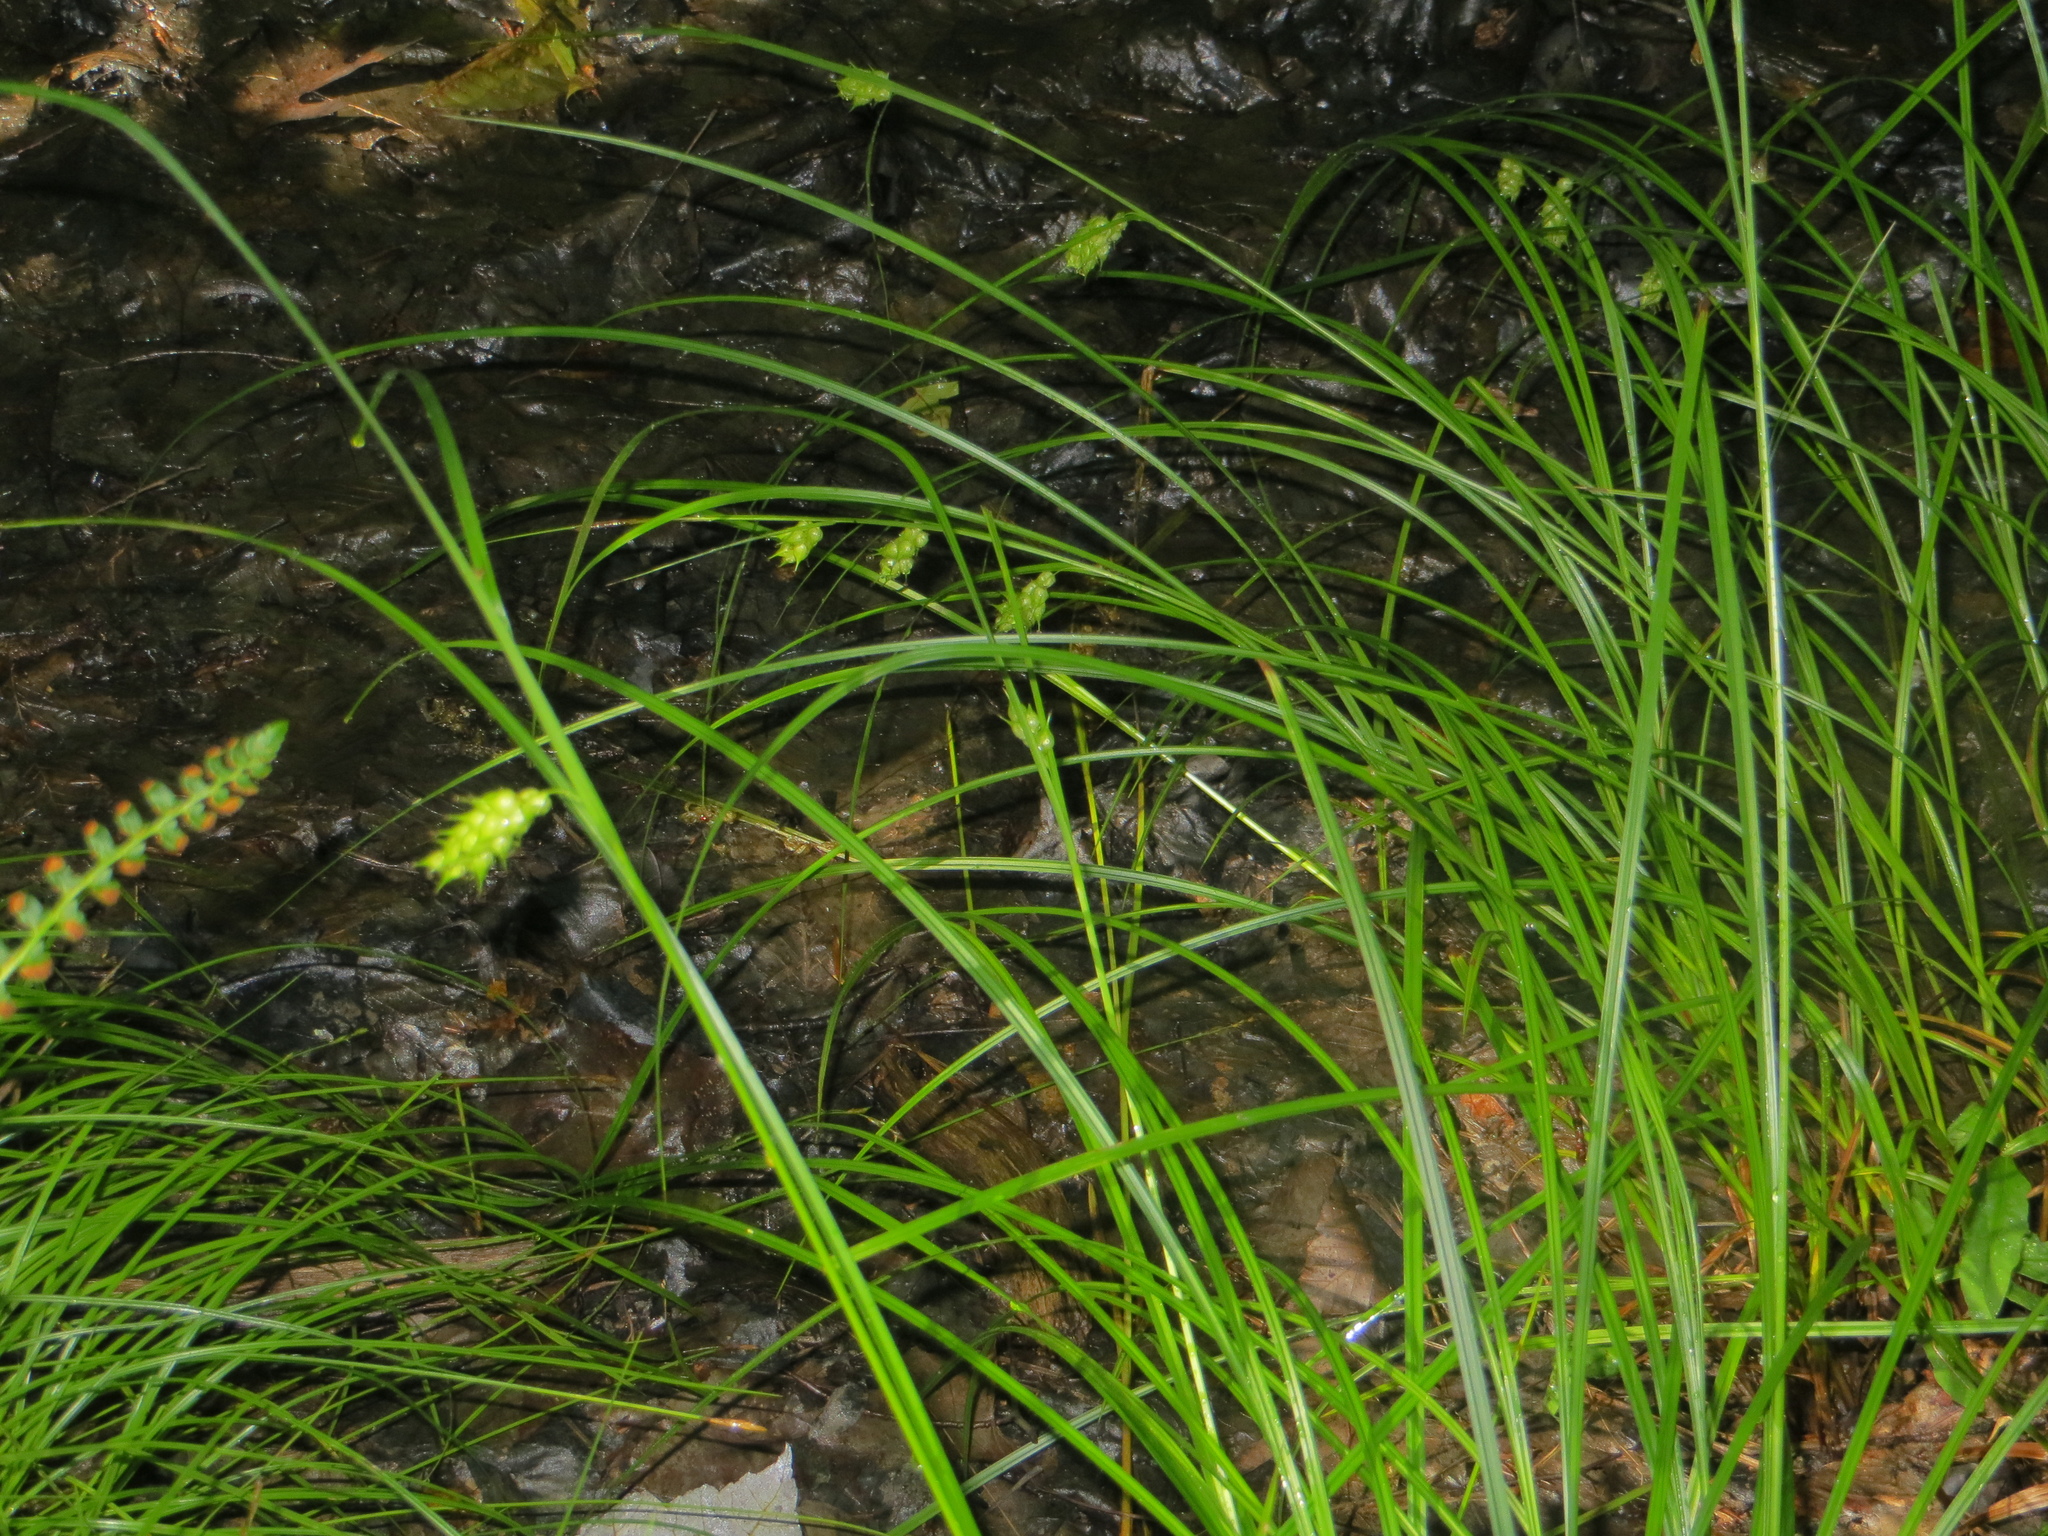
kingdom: Plantae
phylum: Tracheophyta
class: Liliopsida
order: Poales
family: Cyperaceae
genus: Carex
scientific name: Carex tuckermanii
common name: Tuckerman's sedge
